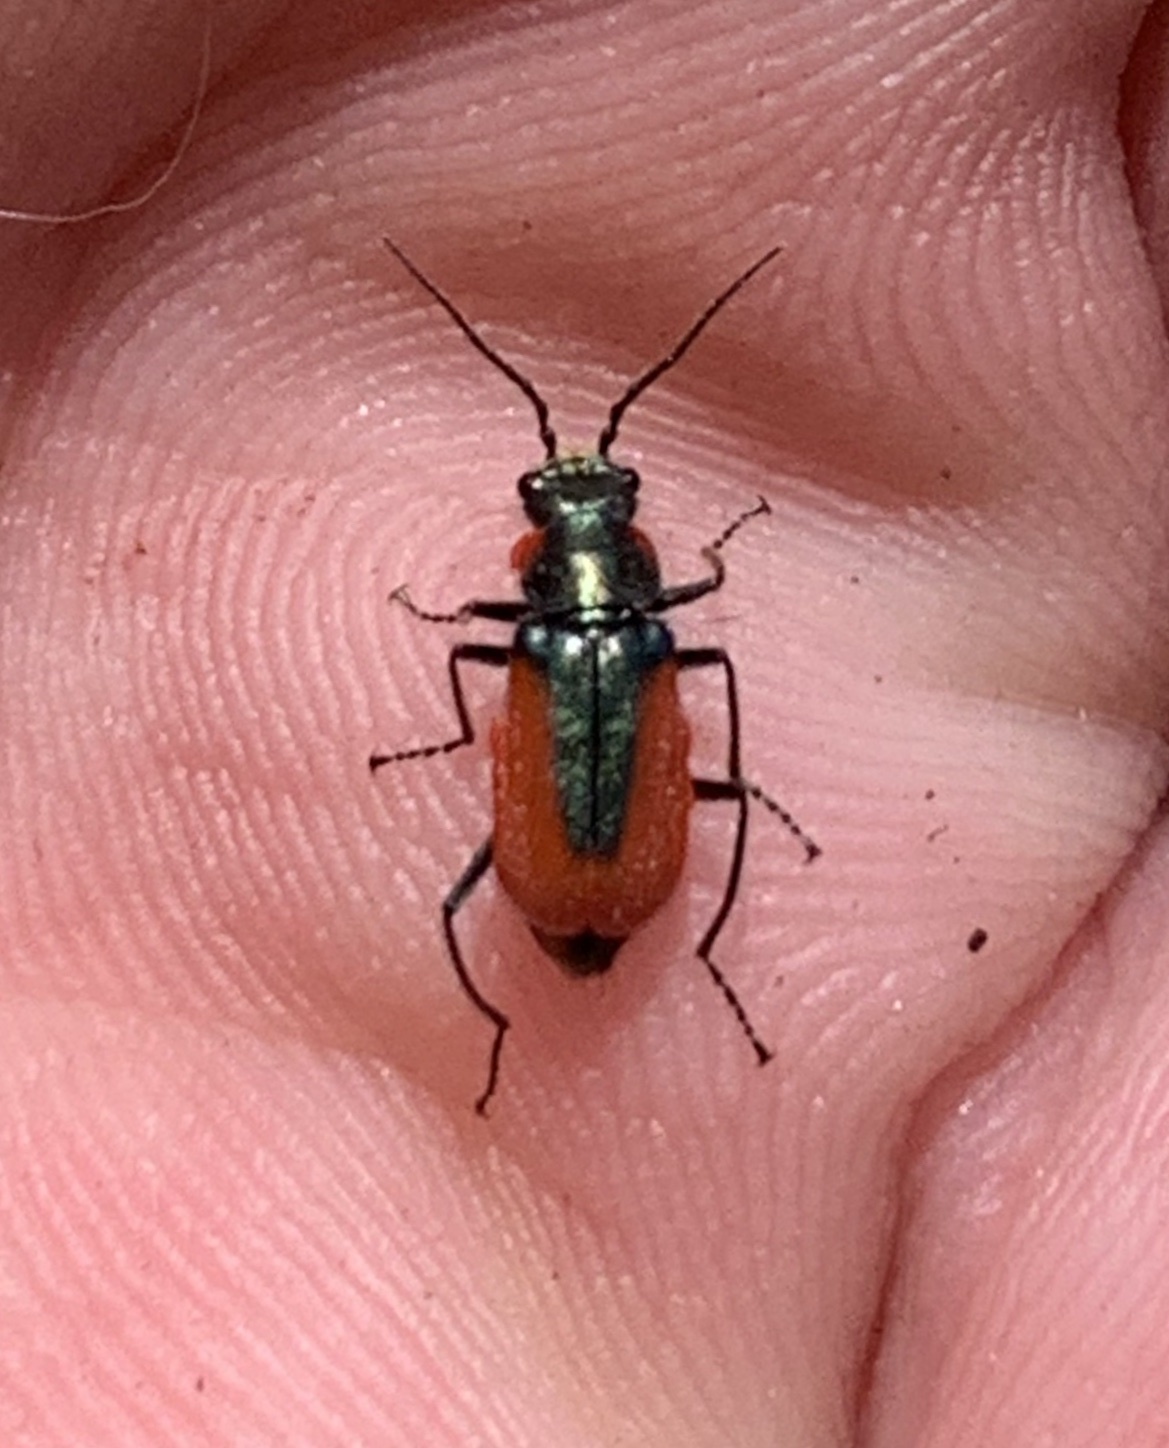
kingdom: Animalia
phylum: Arthropoda
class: Insecta
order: Coleoptera
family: Melyridae
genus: Malachius
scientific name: Malachius aeneus
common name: Scarlet malachite beetle
